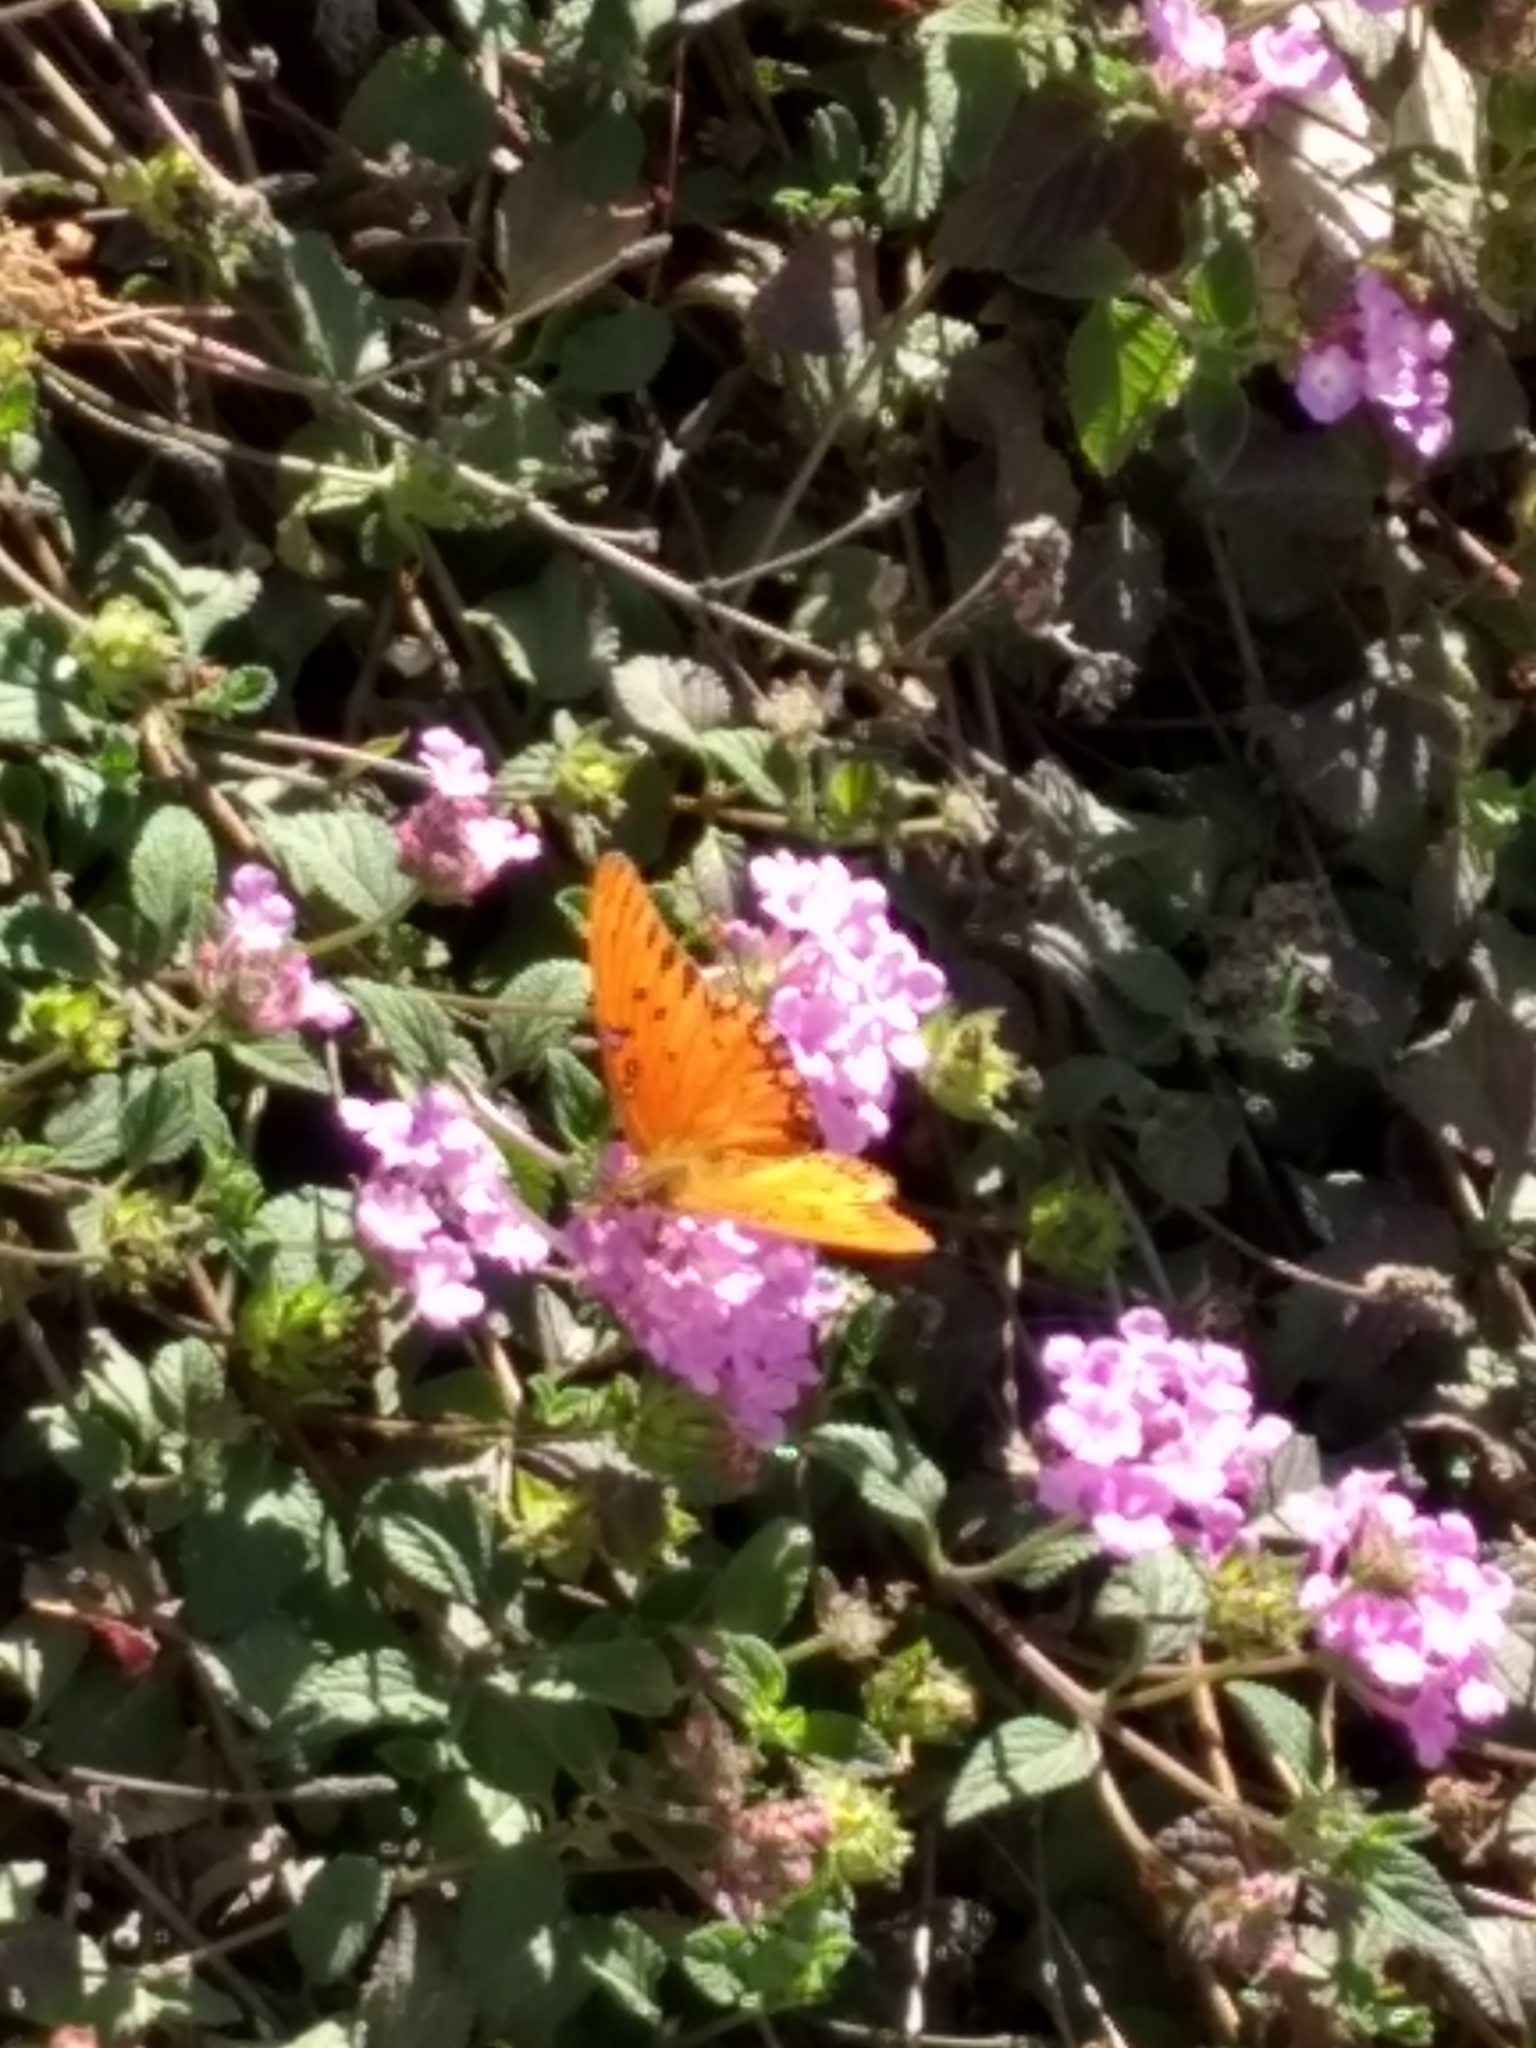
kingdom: Animalia
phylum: Arthropoda
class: Insecta
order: Lepidoptera
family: Nymphalidae
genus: Dione
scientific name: Dione vanillae
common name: Gulf fritillary
